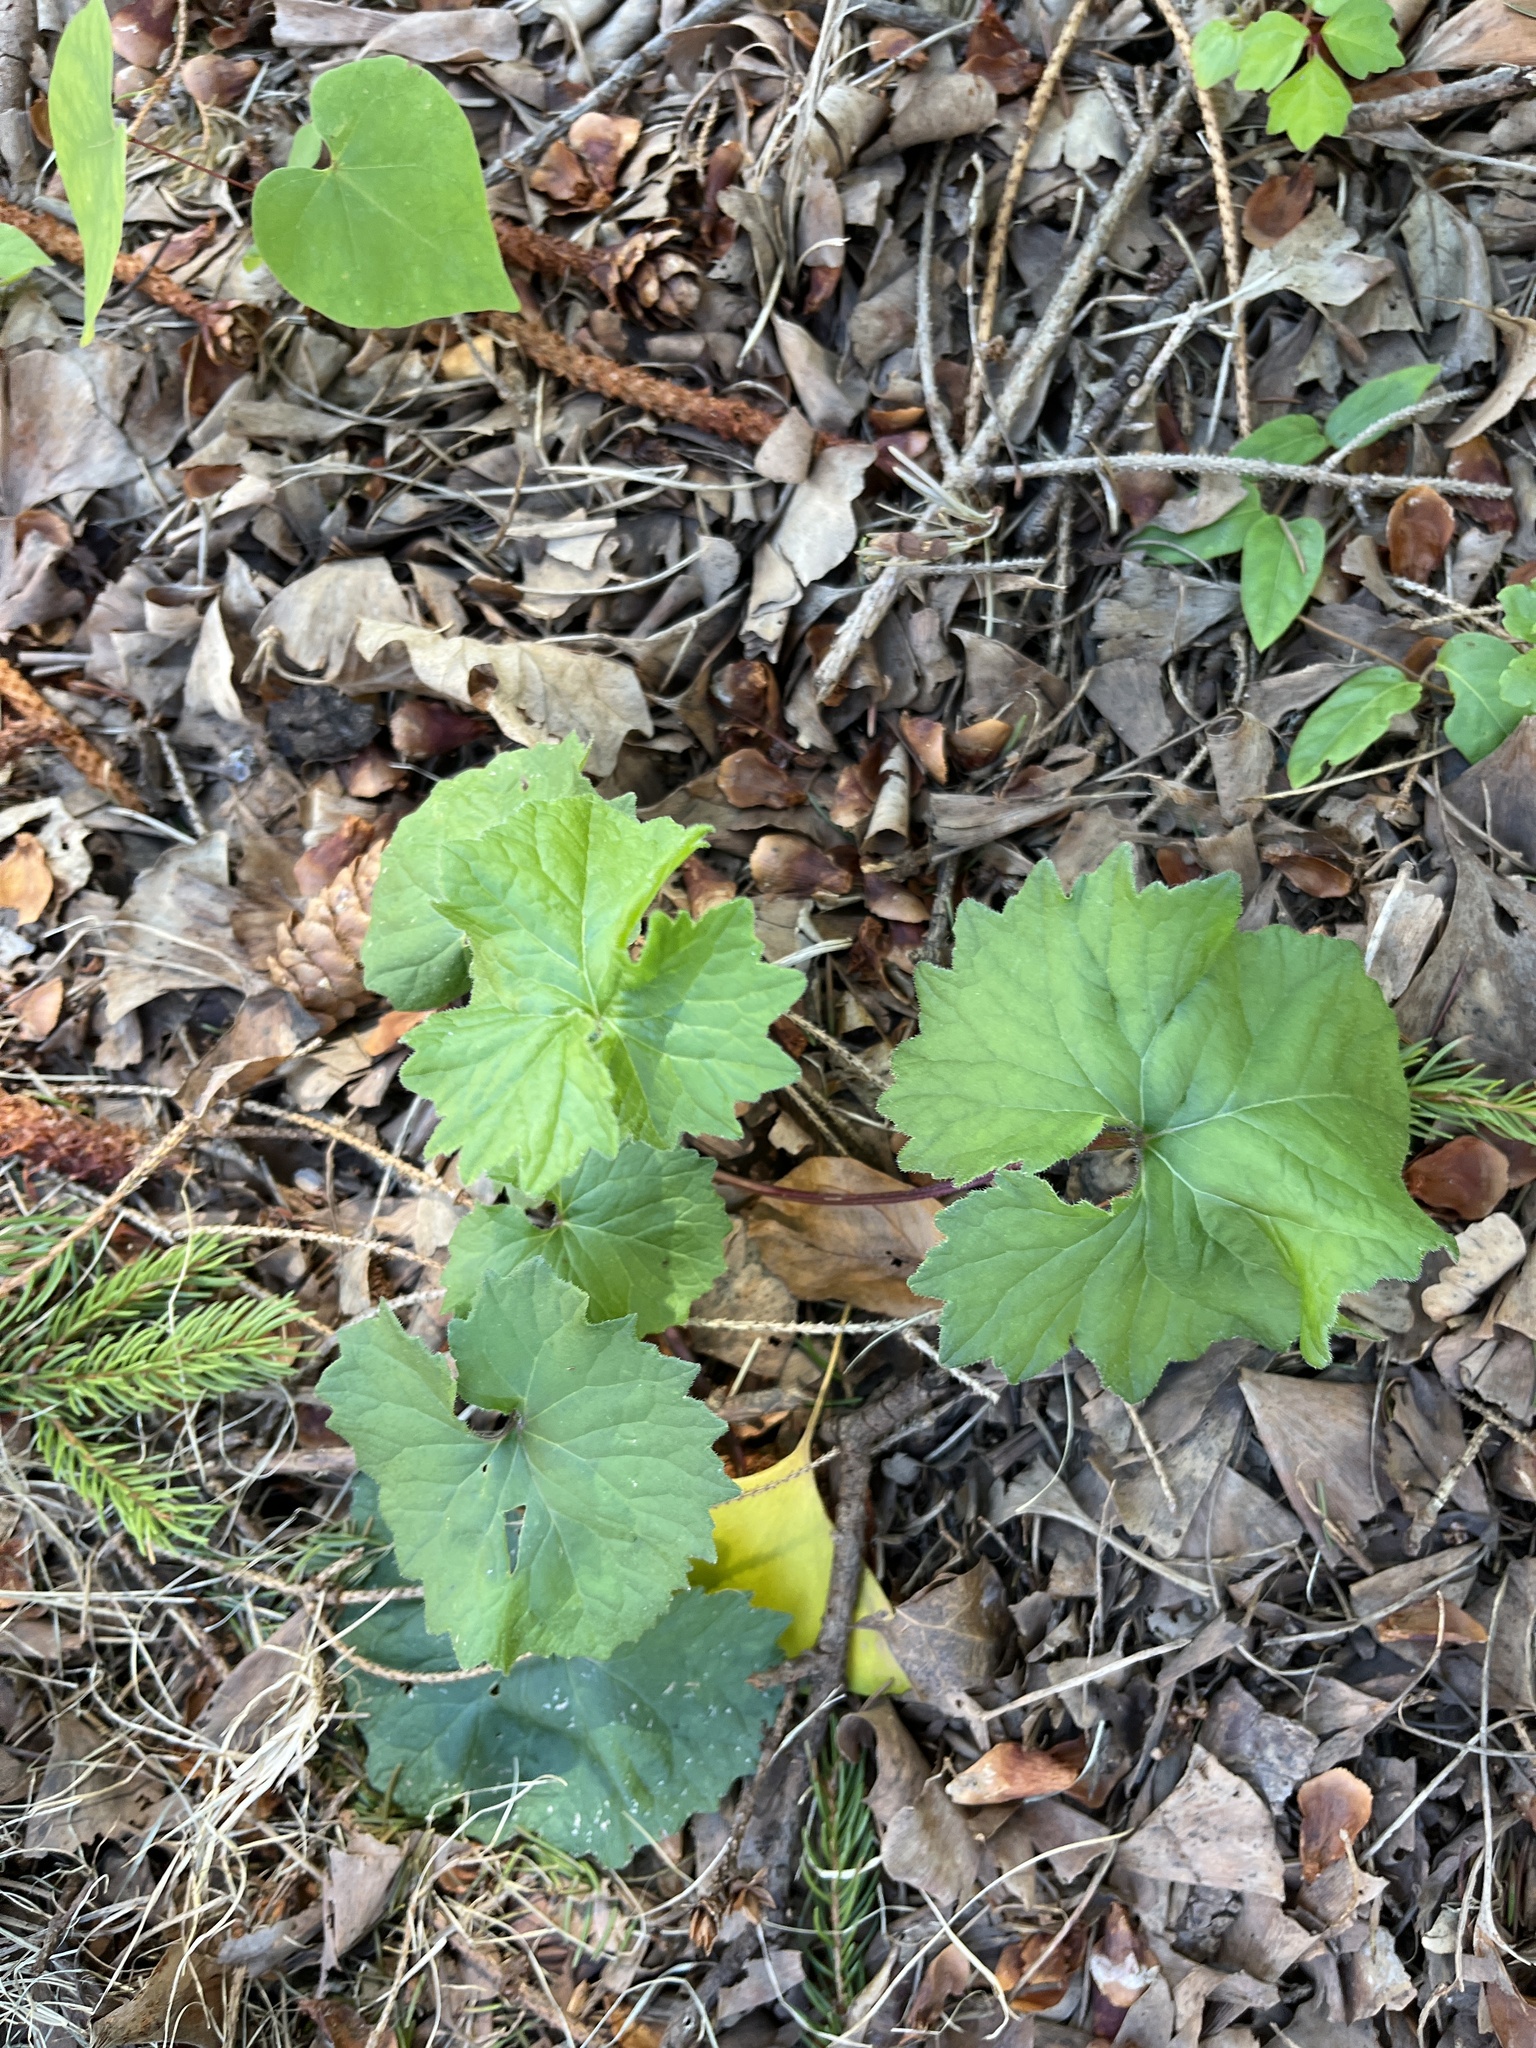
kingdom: Plantae
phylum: Tracheophyta
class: Magnoliopsida
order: Brassicales
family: Brassicaceae
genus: Alliaria
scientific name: Alliaria petiolata
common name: Garlic mustard
